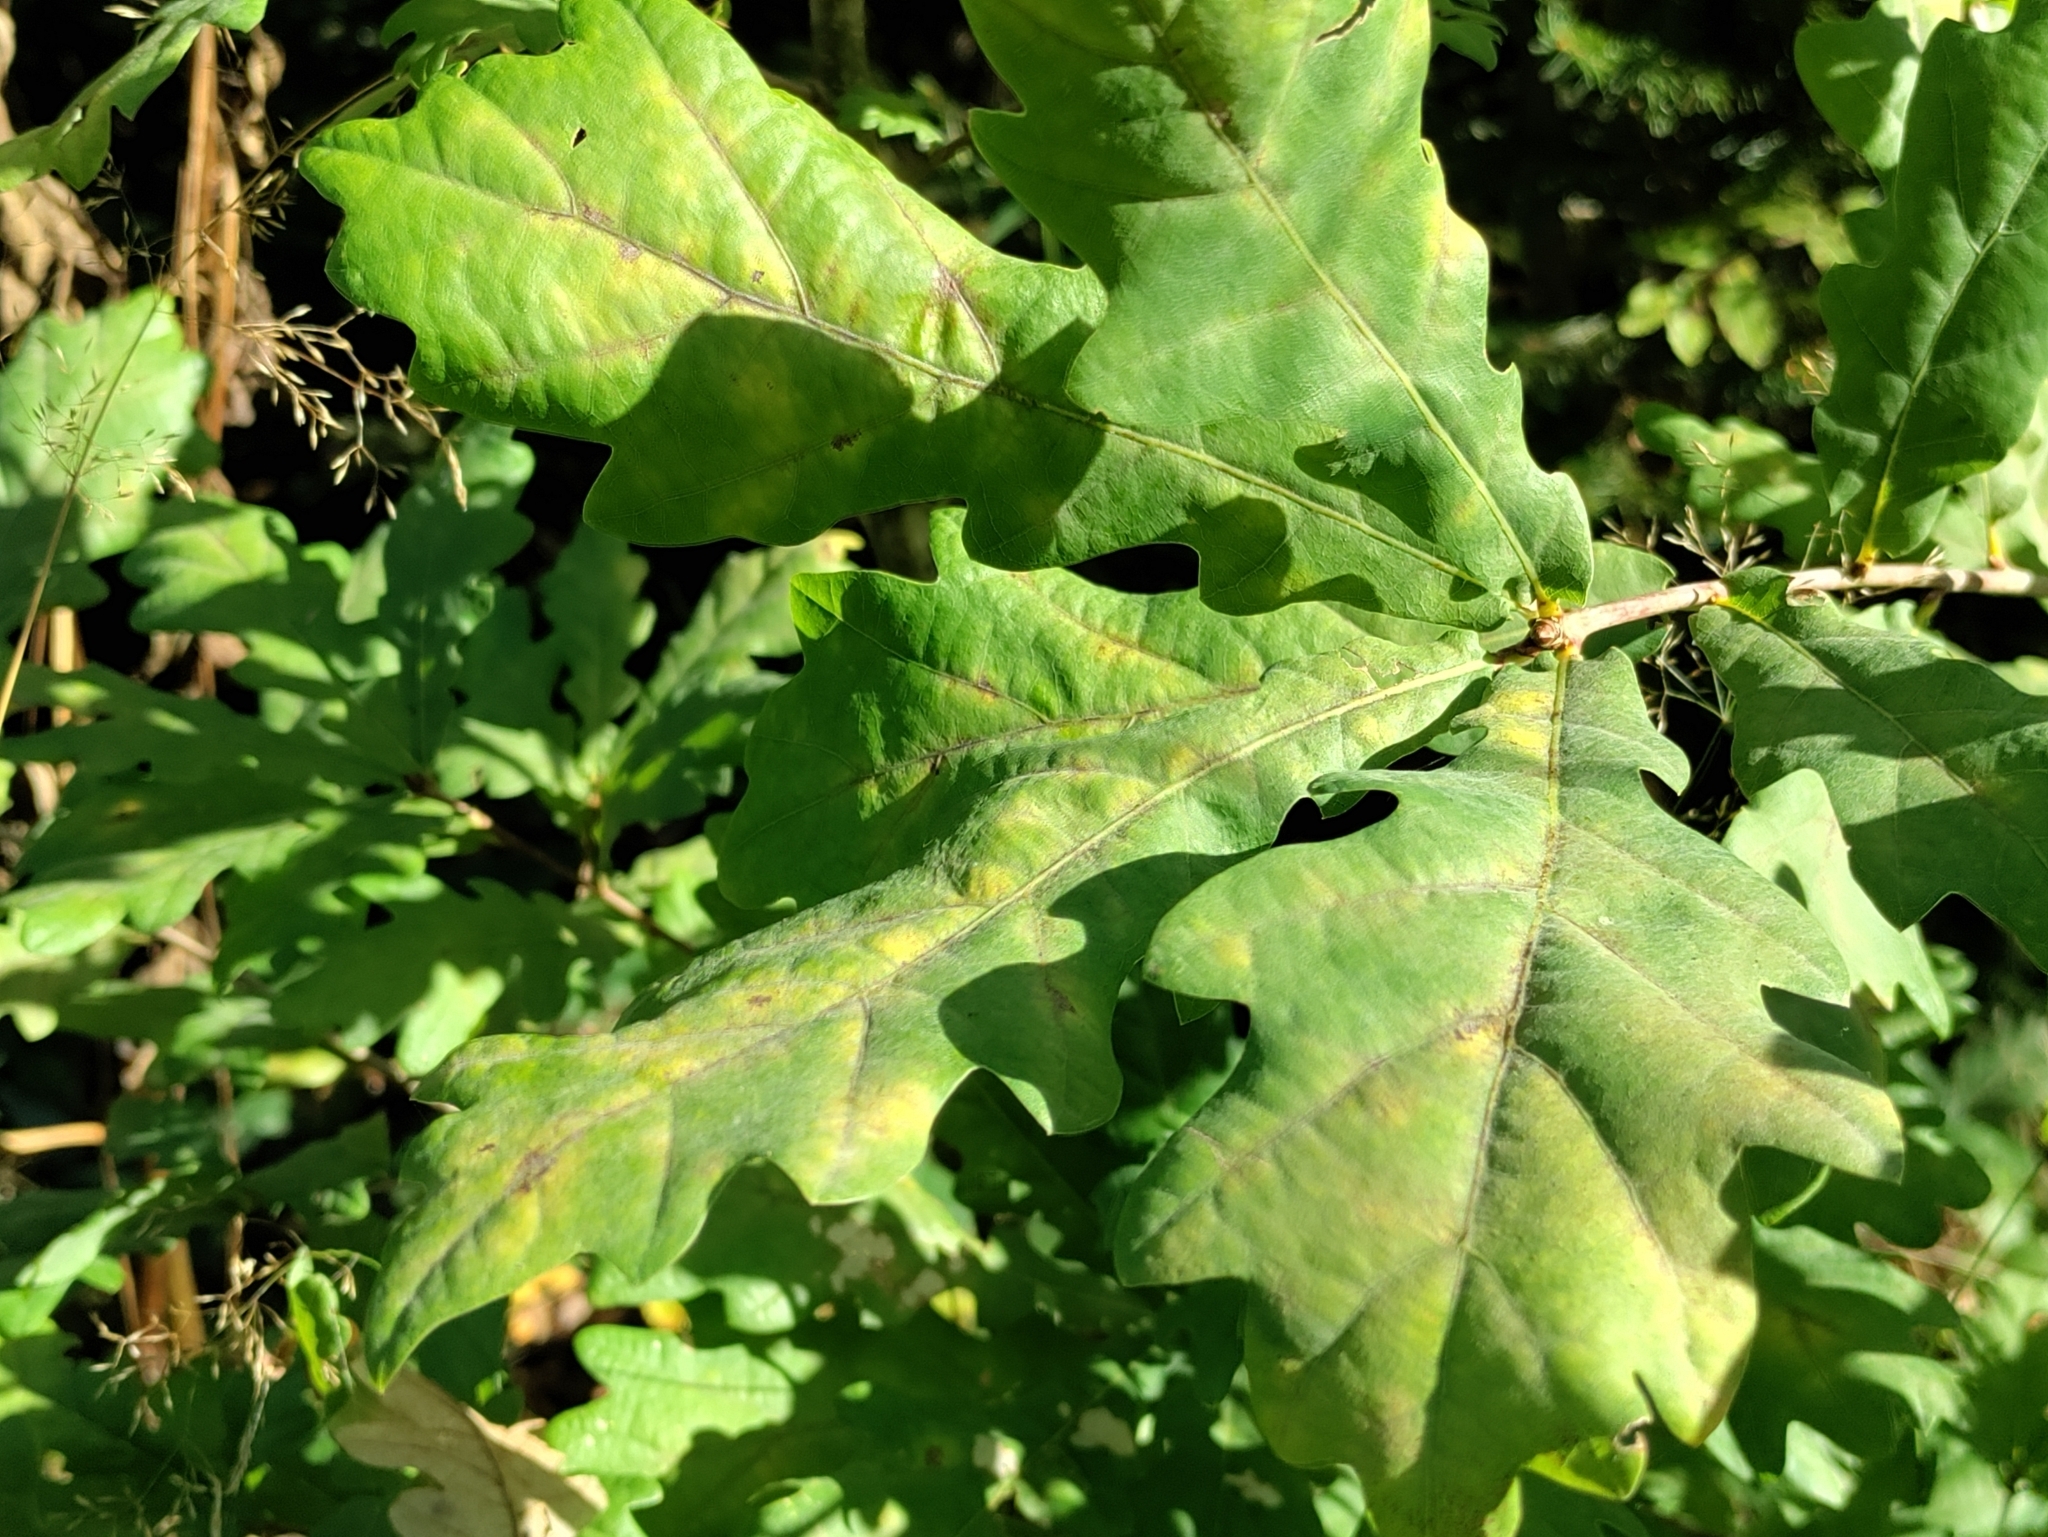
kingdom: Plantae
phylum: Tracheophyta
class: Magnoliopsida
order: Fagales
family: Fagaceae
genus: Quercus
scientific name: Quercus robur
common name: Pedunculate oak
